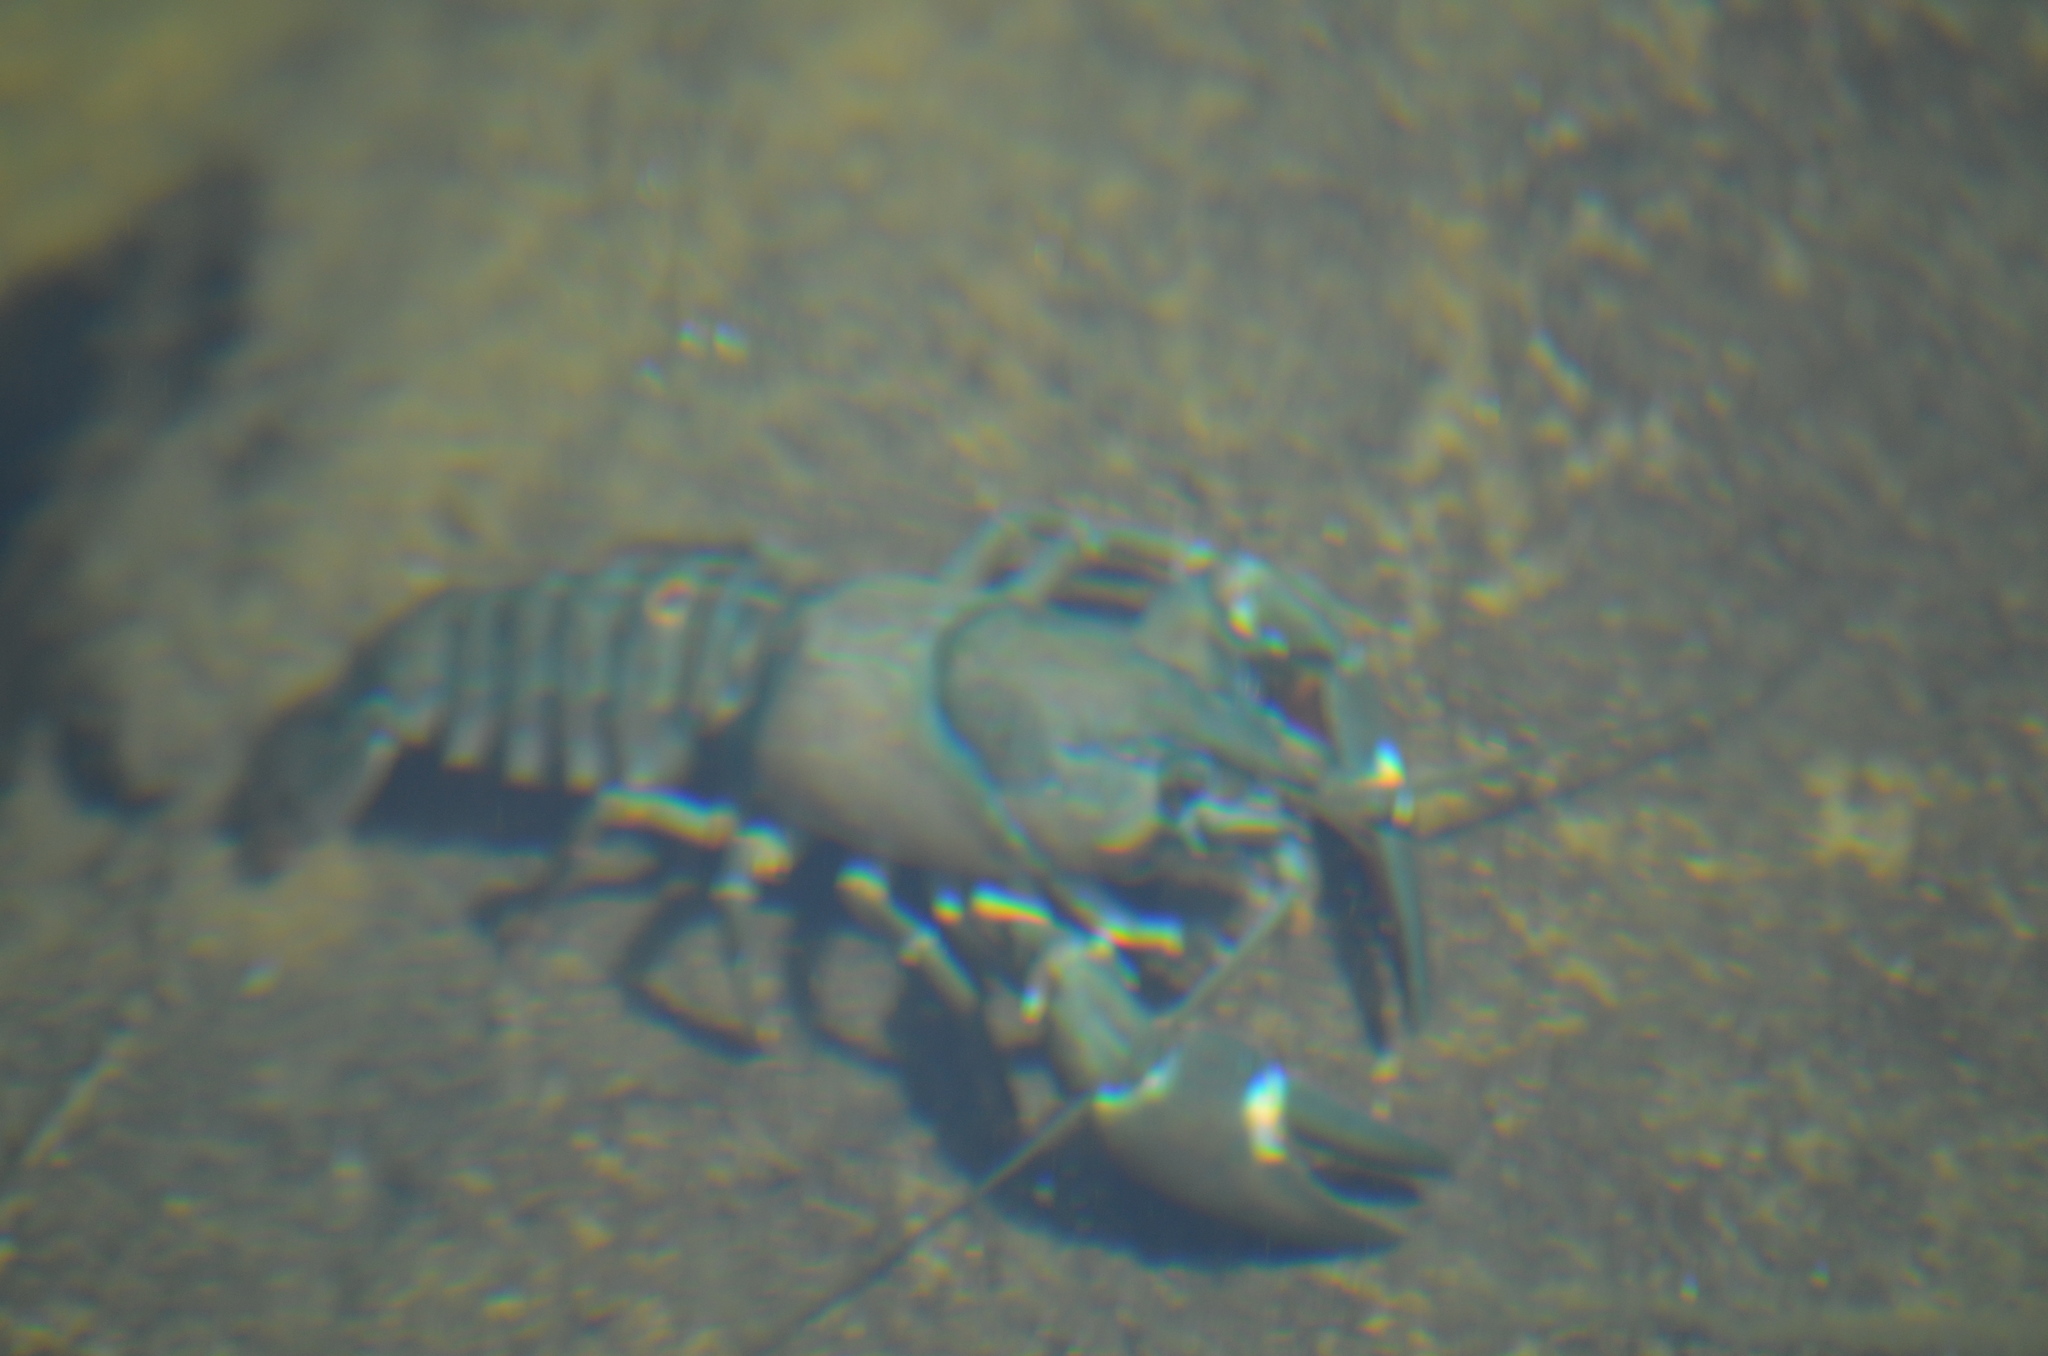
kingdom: Animalia
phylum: Arthropoda
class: Malacostraca
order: Decapoda
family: Astacidae
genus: Pacifastacus
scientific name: Pacifastacus leniusculus
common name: Signal crayfish
